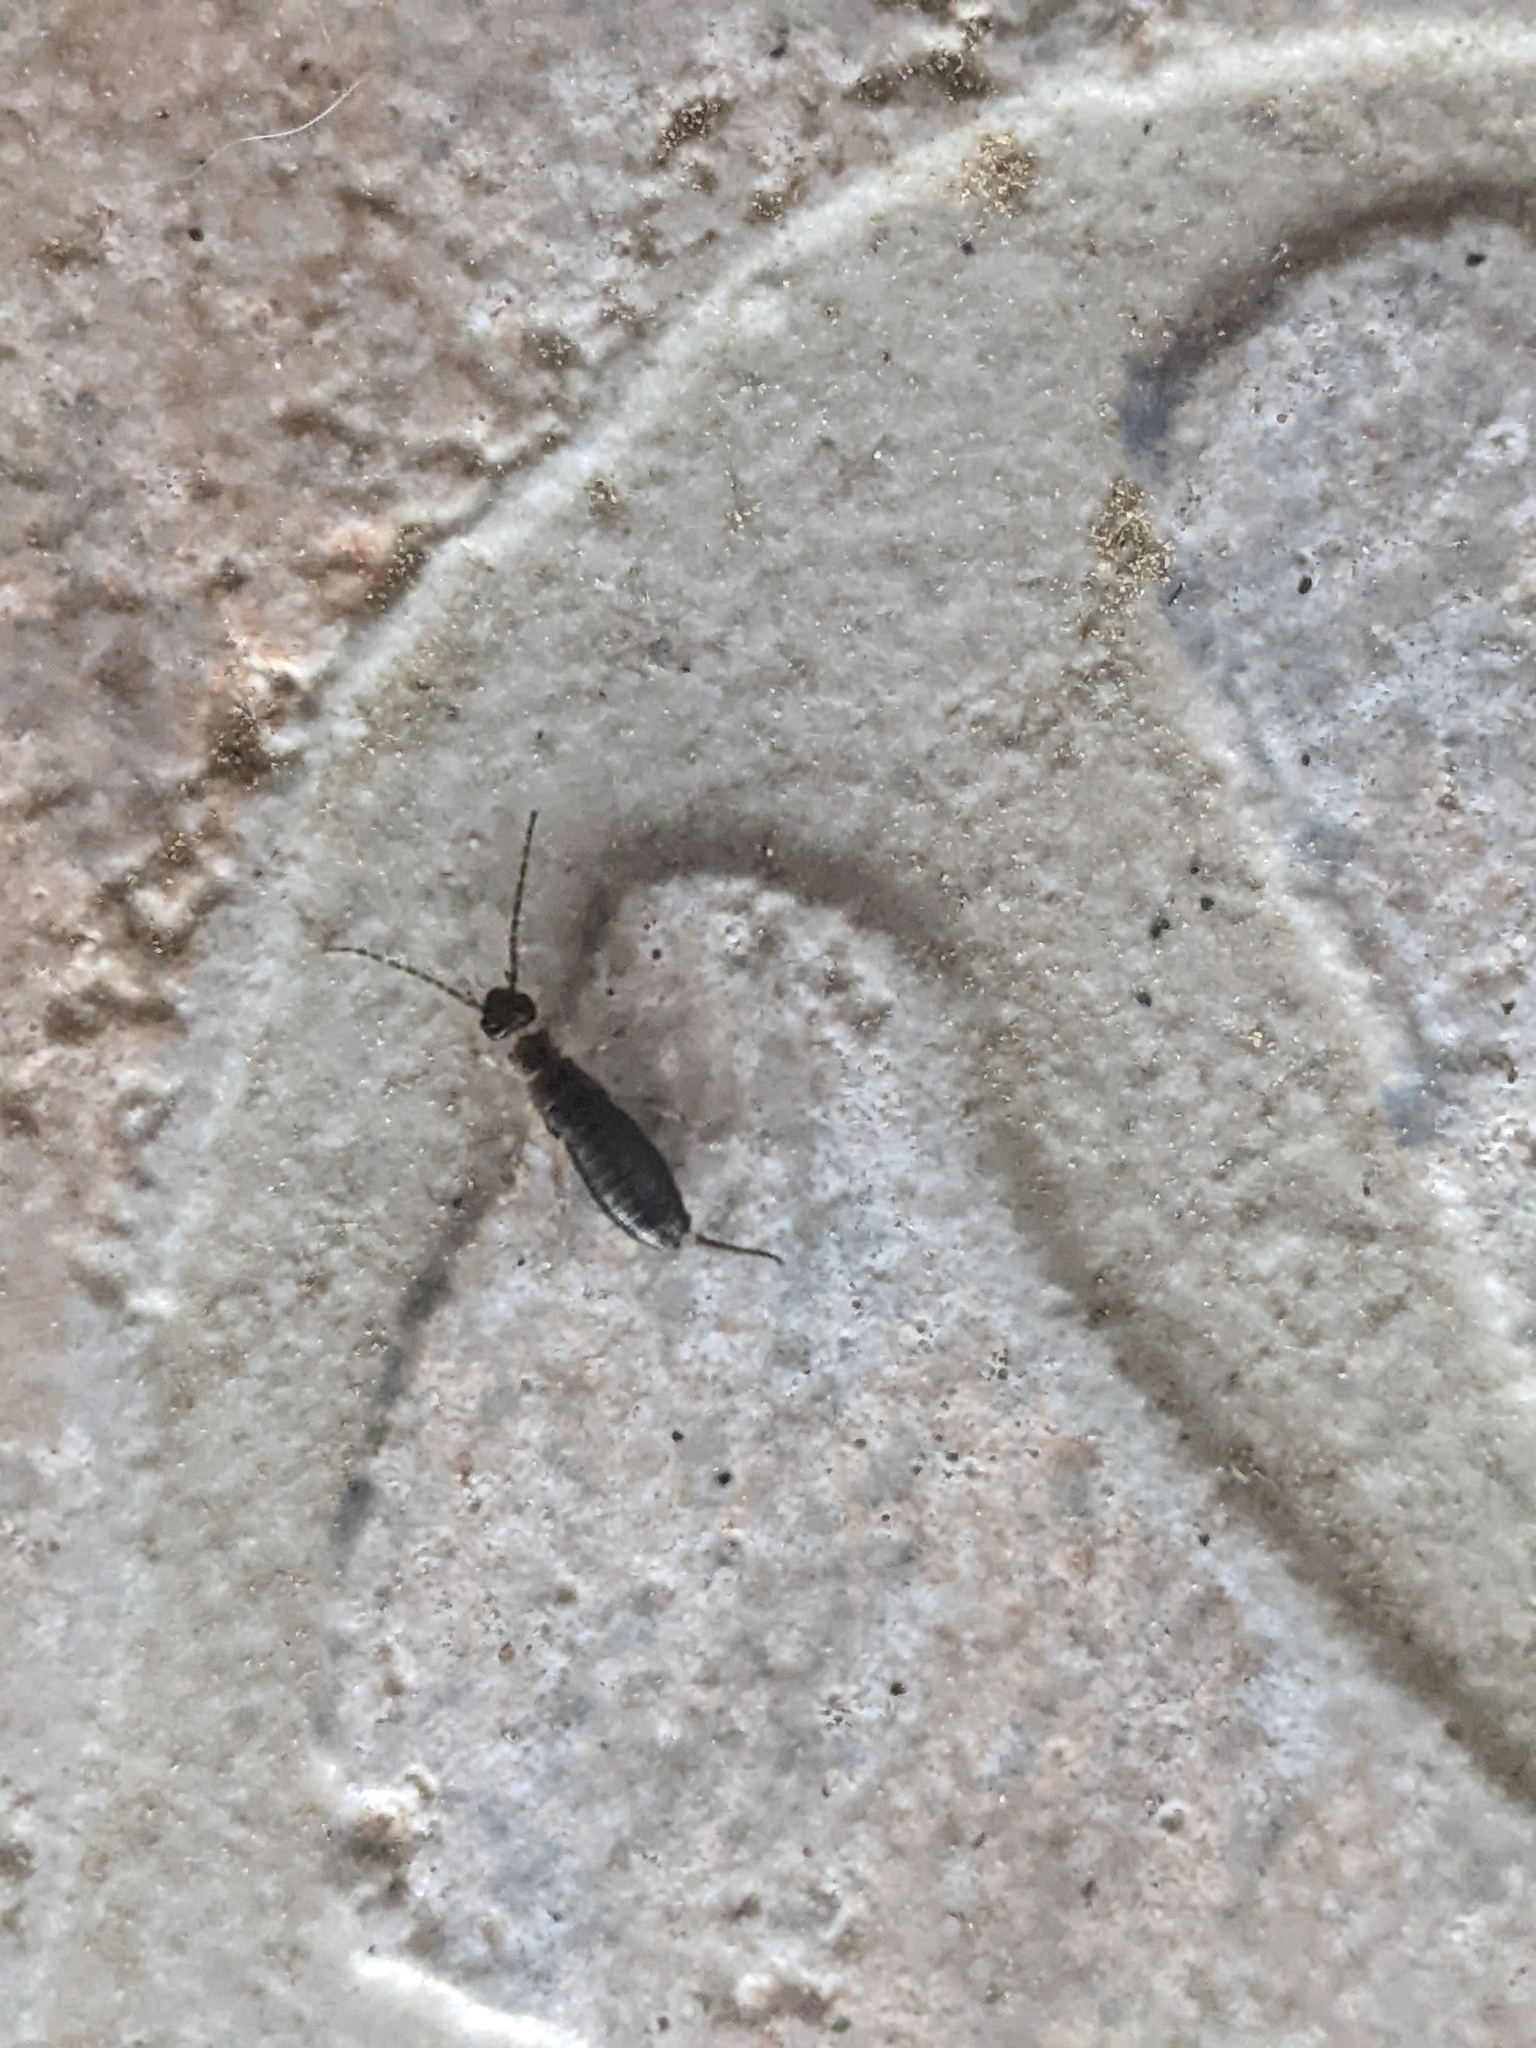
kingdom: Animalia
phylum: Arthropoda
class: Insecta
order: Dermaptera
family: Forficulidae
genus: Forficula
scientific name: Forficula
